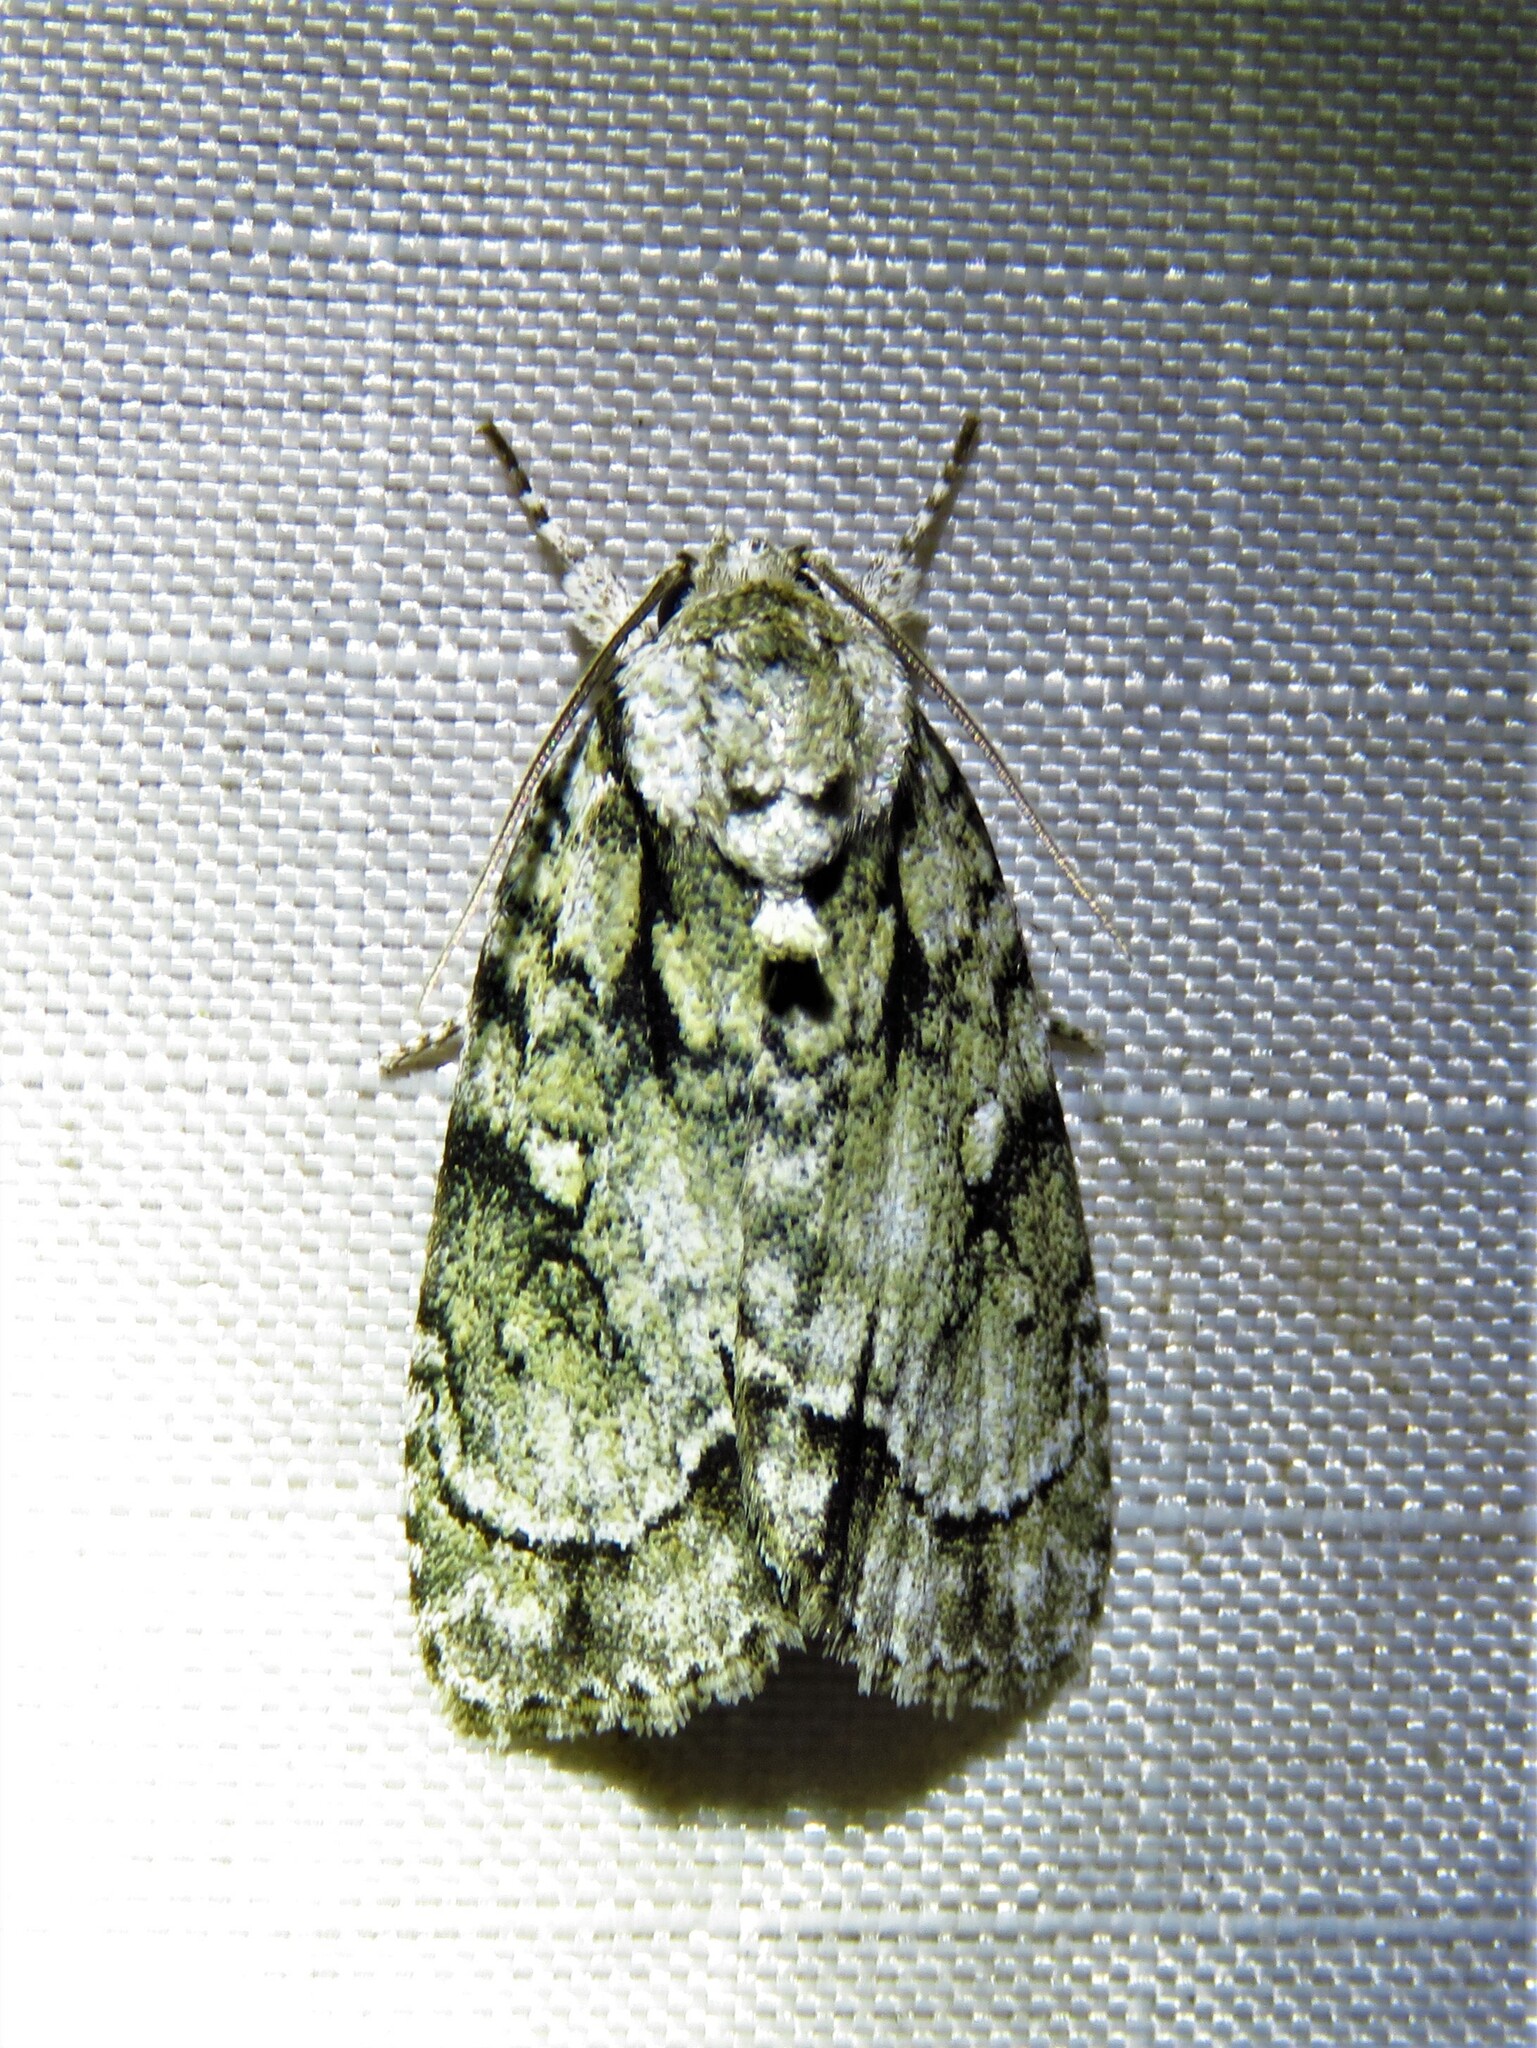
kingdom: Animalia
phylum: Arthropoda
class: Insecta
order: Lepidoptera
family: Noctuidae
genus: Acronicta
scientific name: Acronicta vinnula
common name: Delightful dagger
